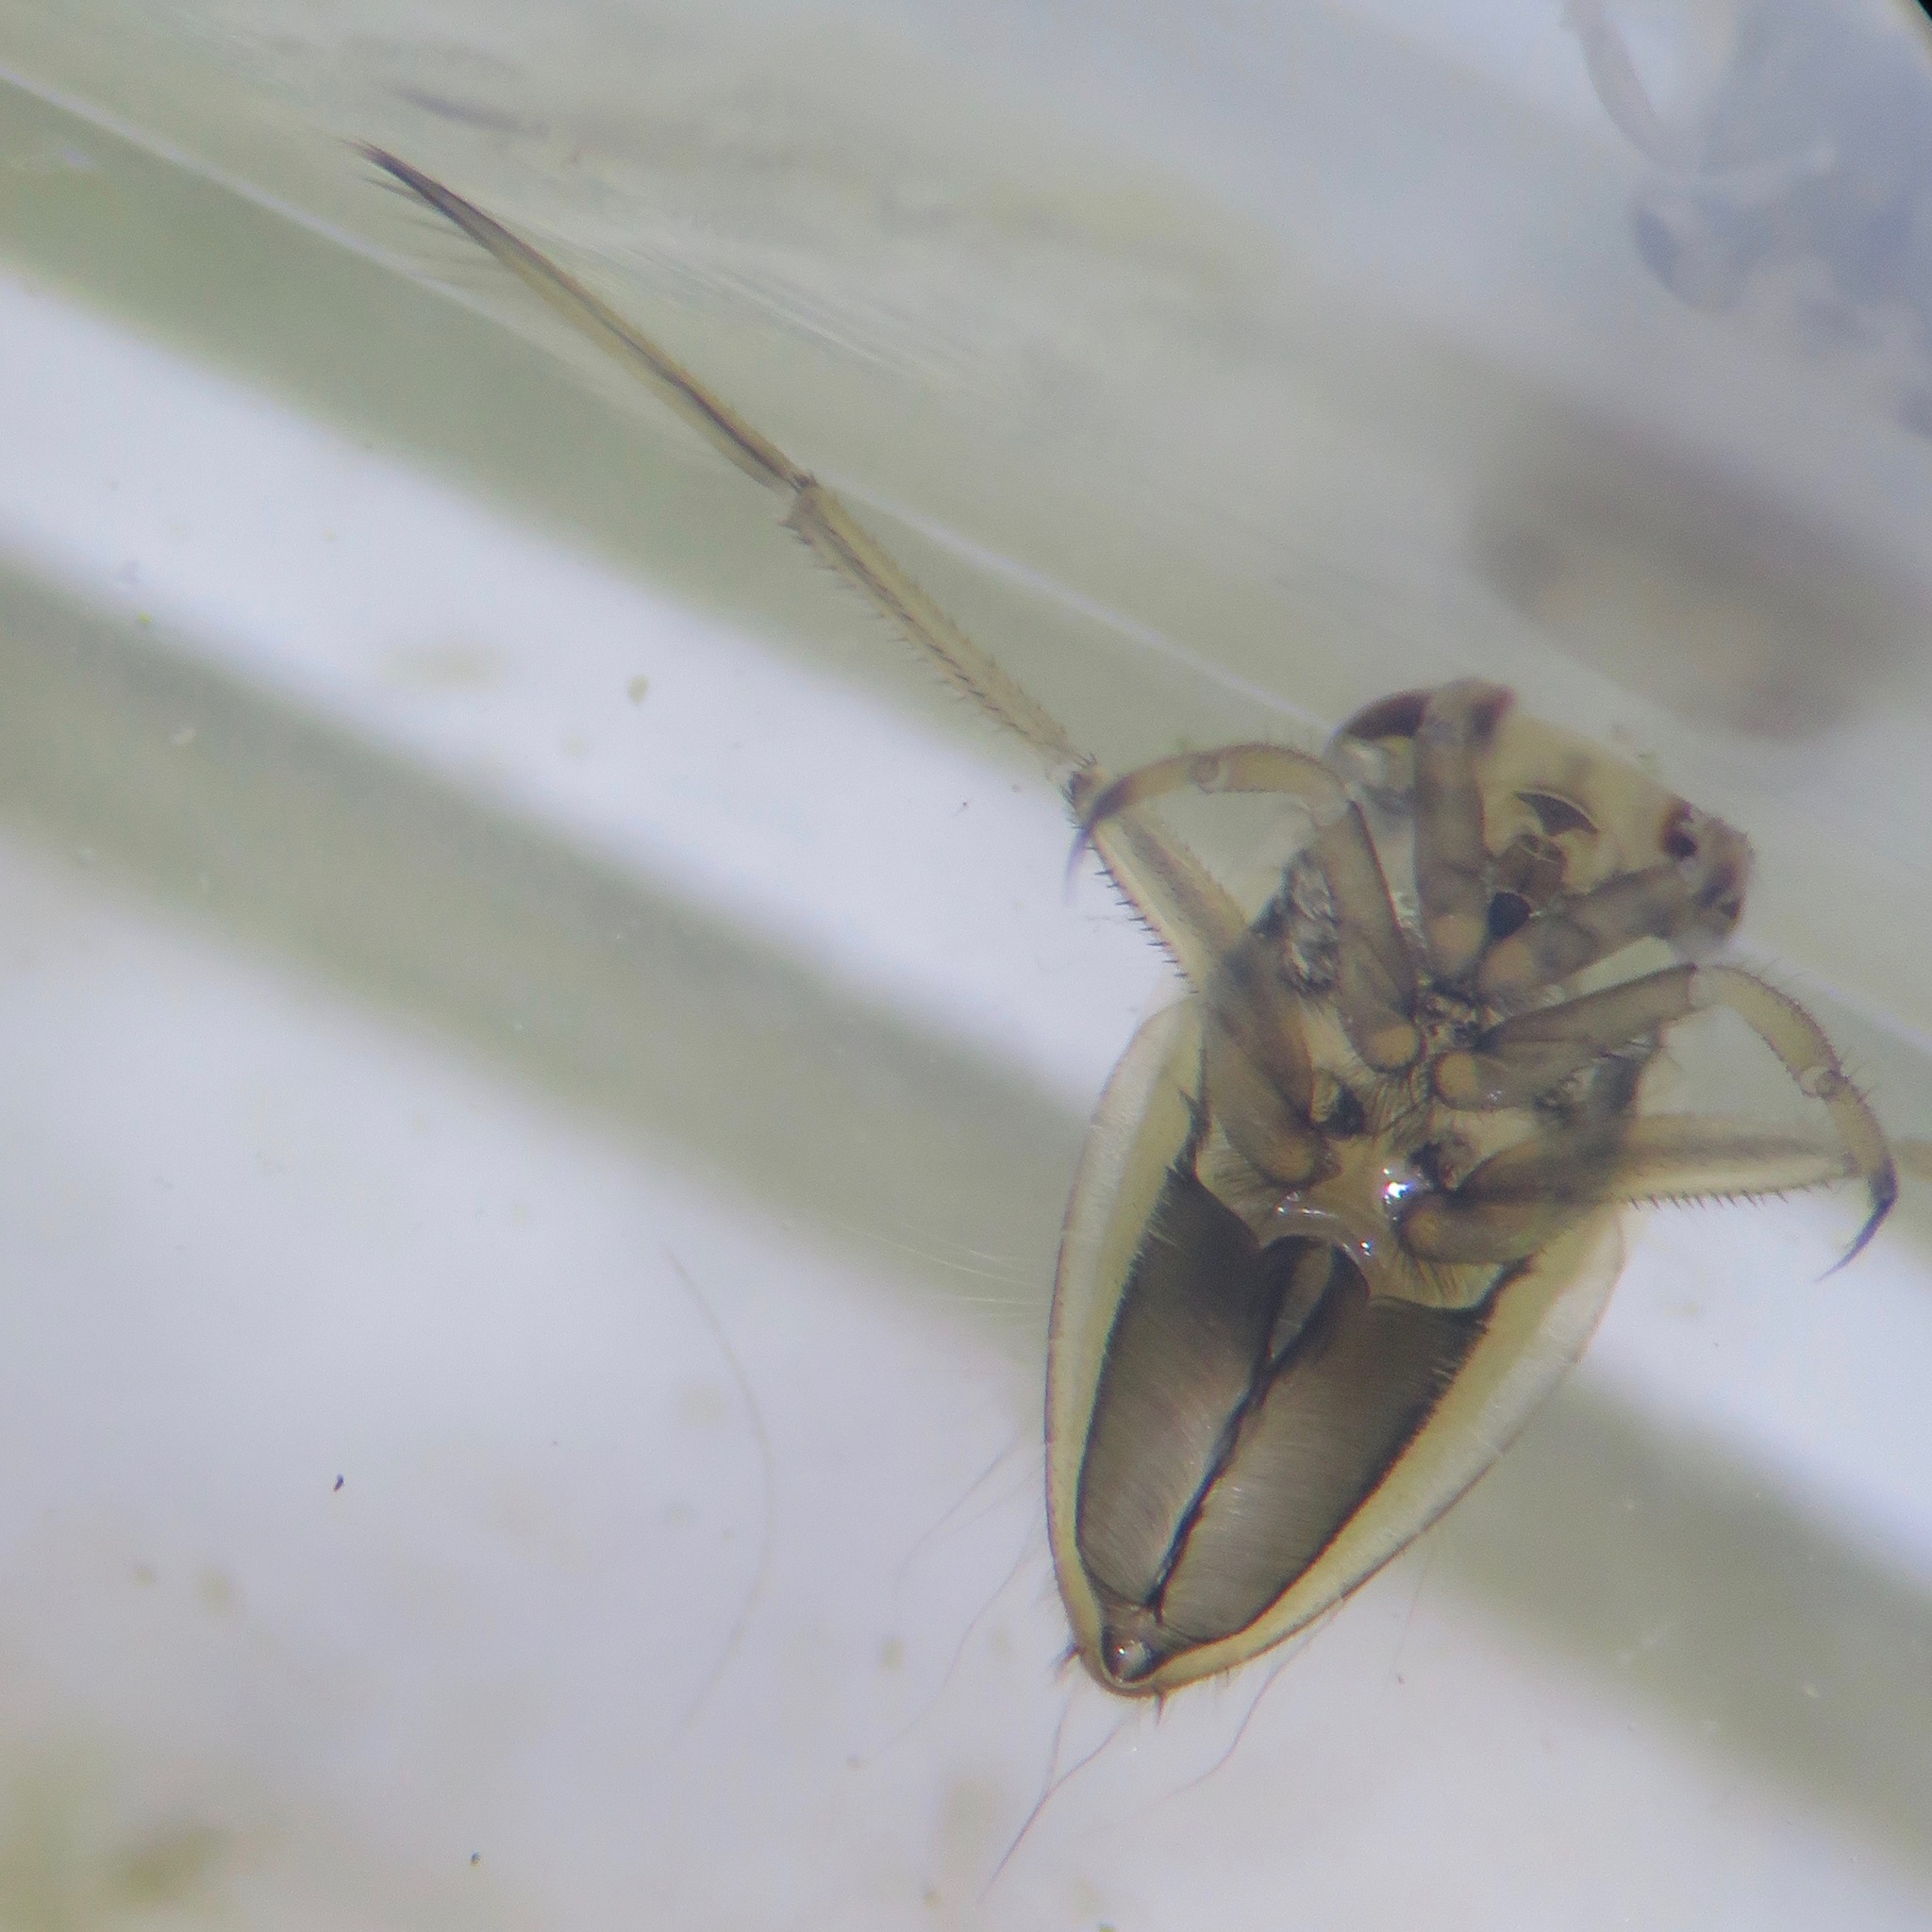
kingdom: Animalia
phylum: Arthropoda
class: Insecta
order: Hemiptera
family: Notonectidae
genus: Notonecta
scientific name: Notonecta
